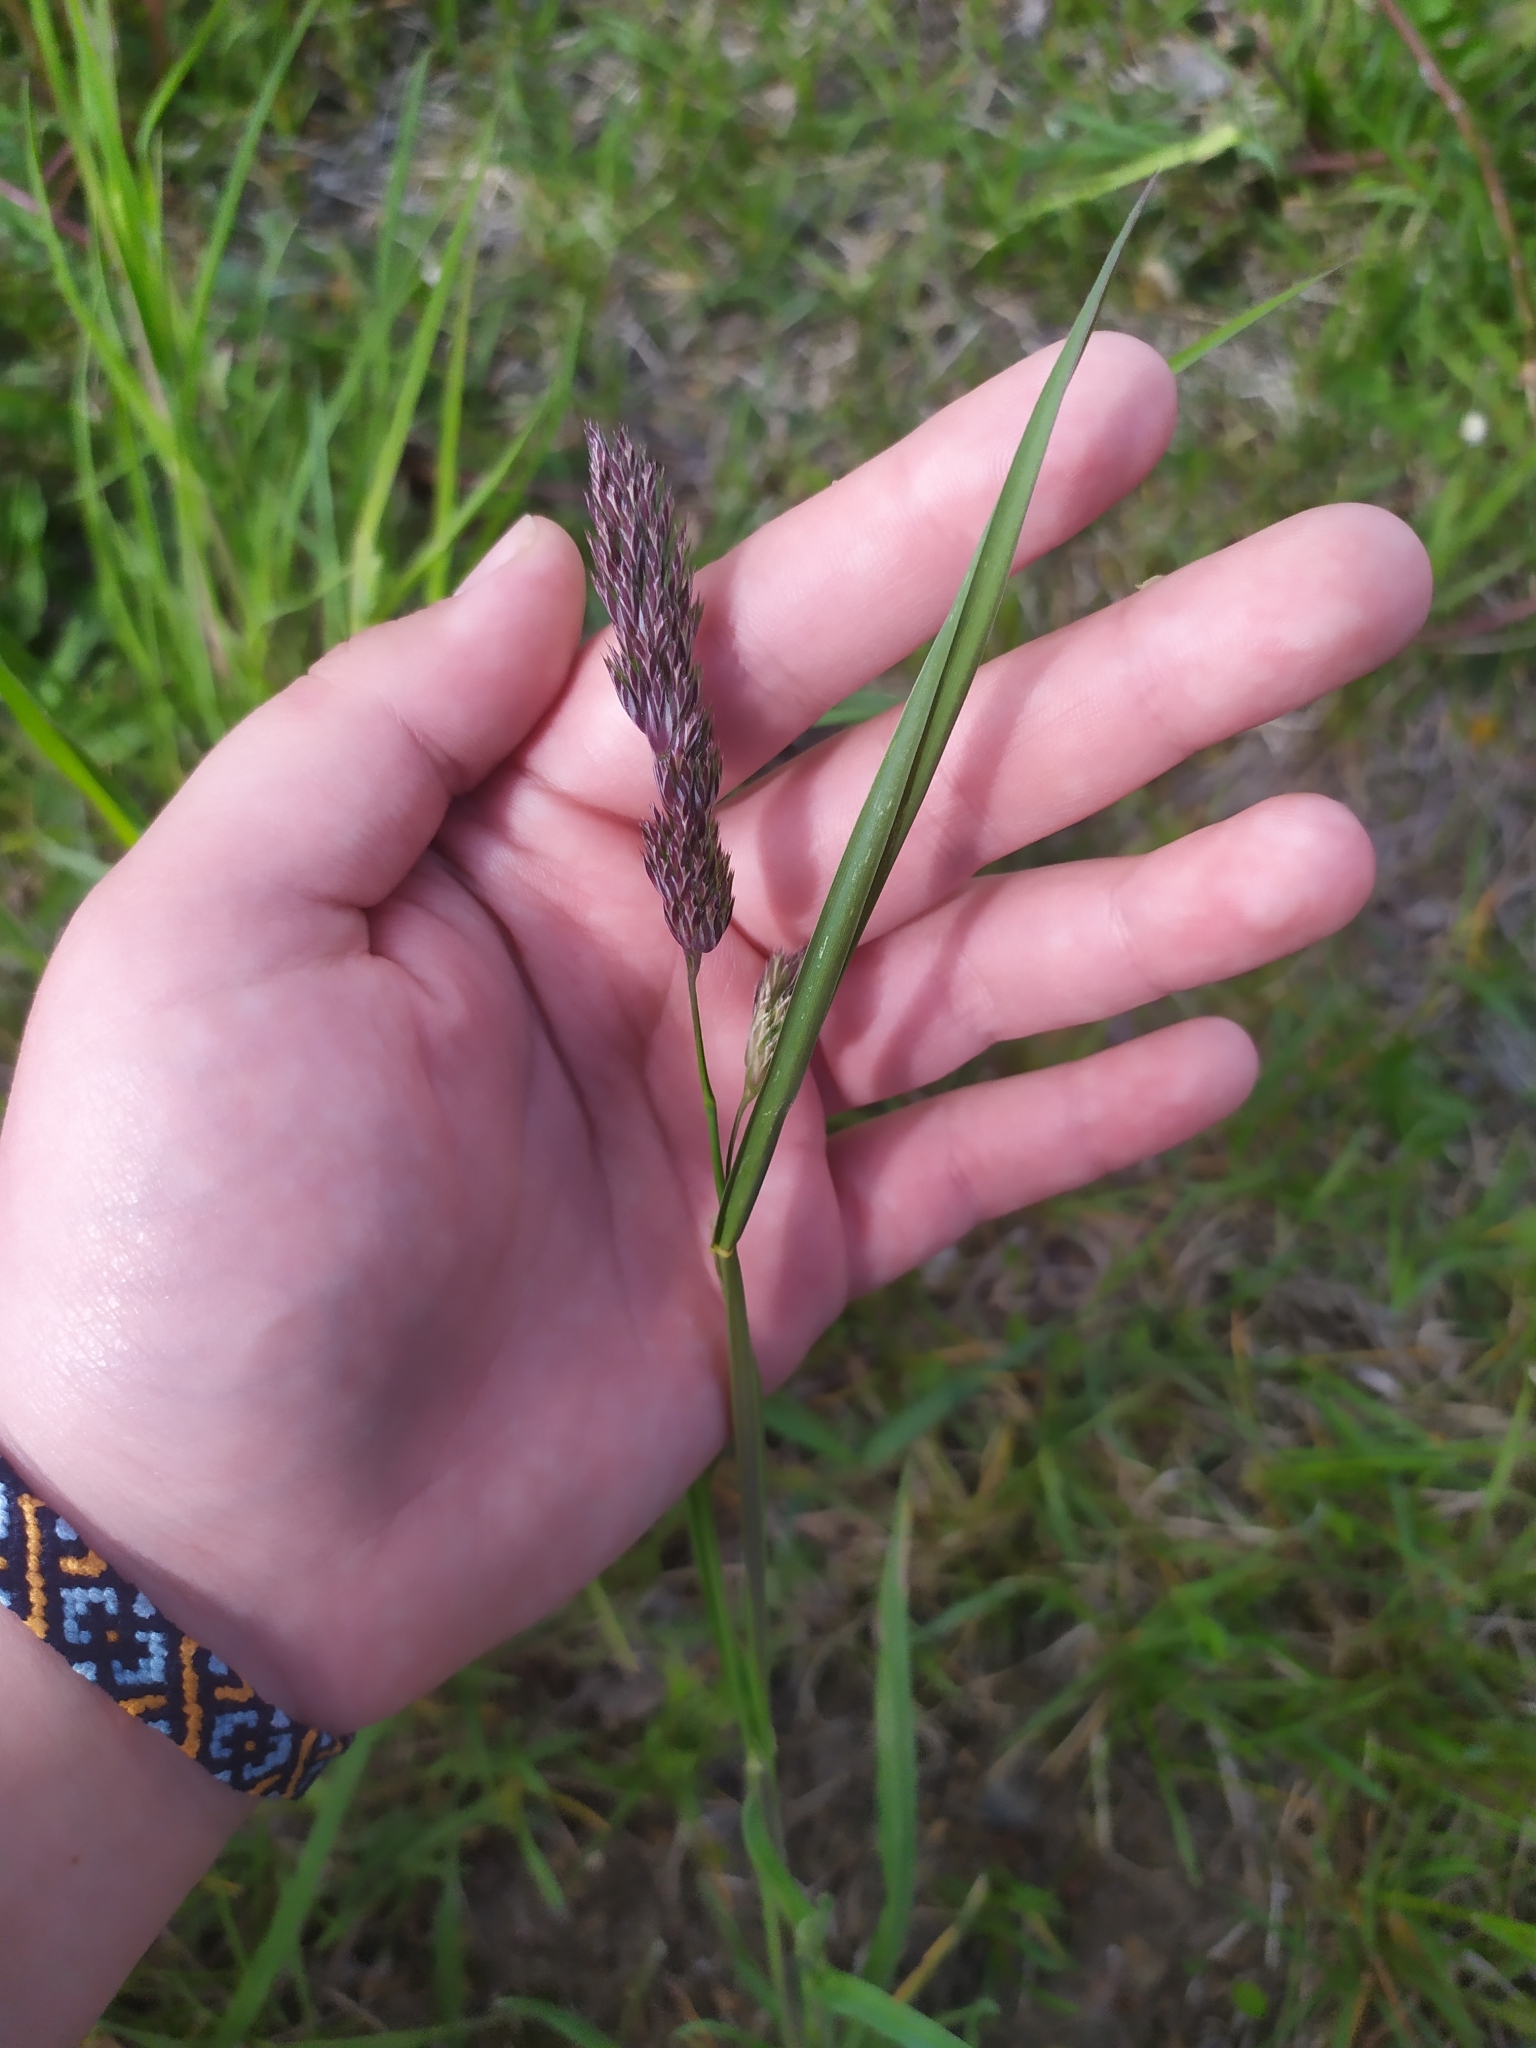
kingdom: Plantae
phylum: Tracheophyta
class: Liliopsida
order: Poales
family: Poaceae
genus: Dactylis
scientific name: Dactylis glomerata
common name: Orchardgrass
